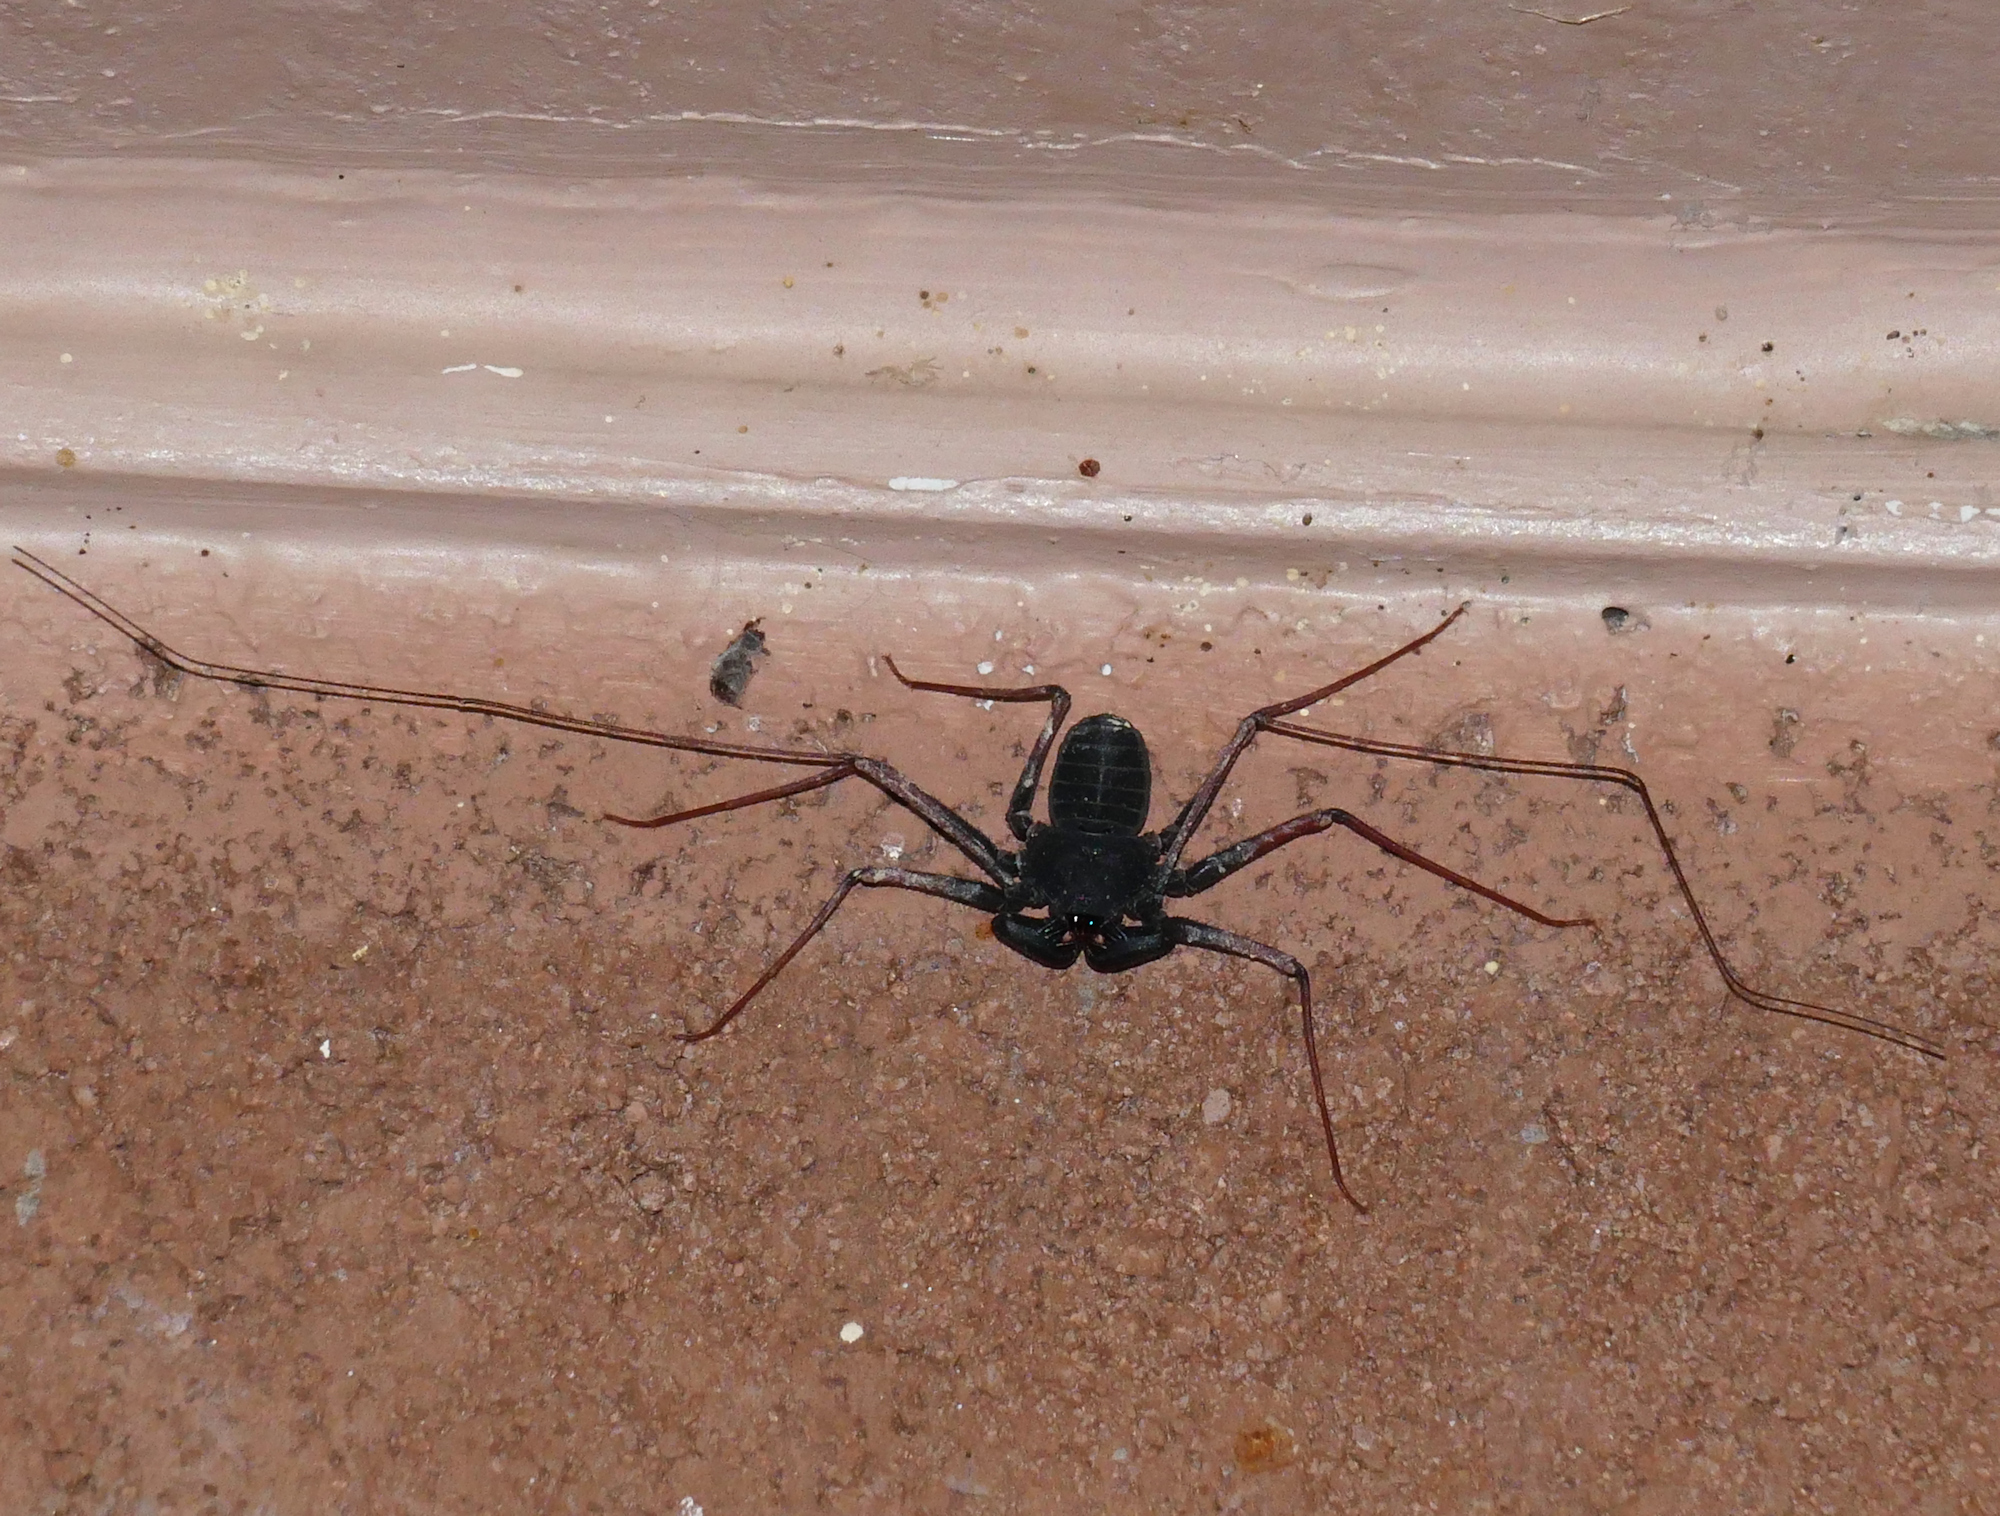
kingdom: Animalia
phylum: Arthropoda
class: Arachnida
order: Amblypygi
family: Phrynidae
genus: Paraphrynus
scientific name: Paraphrynus carolynae
